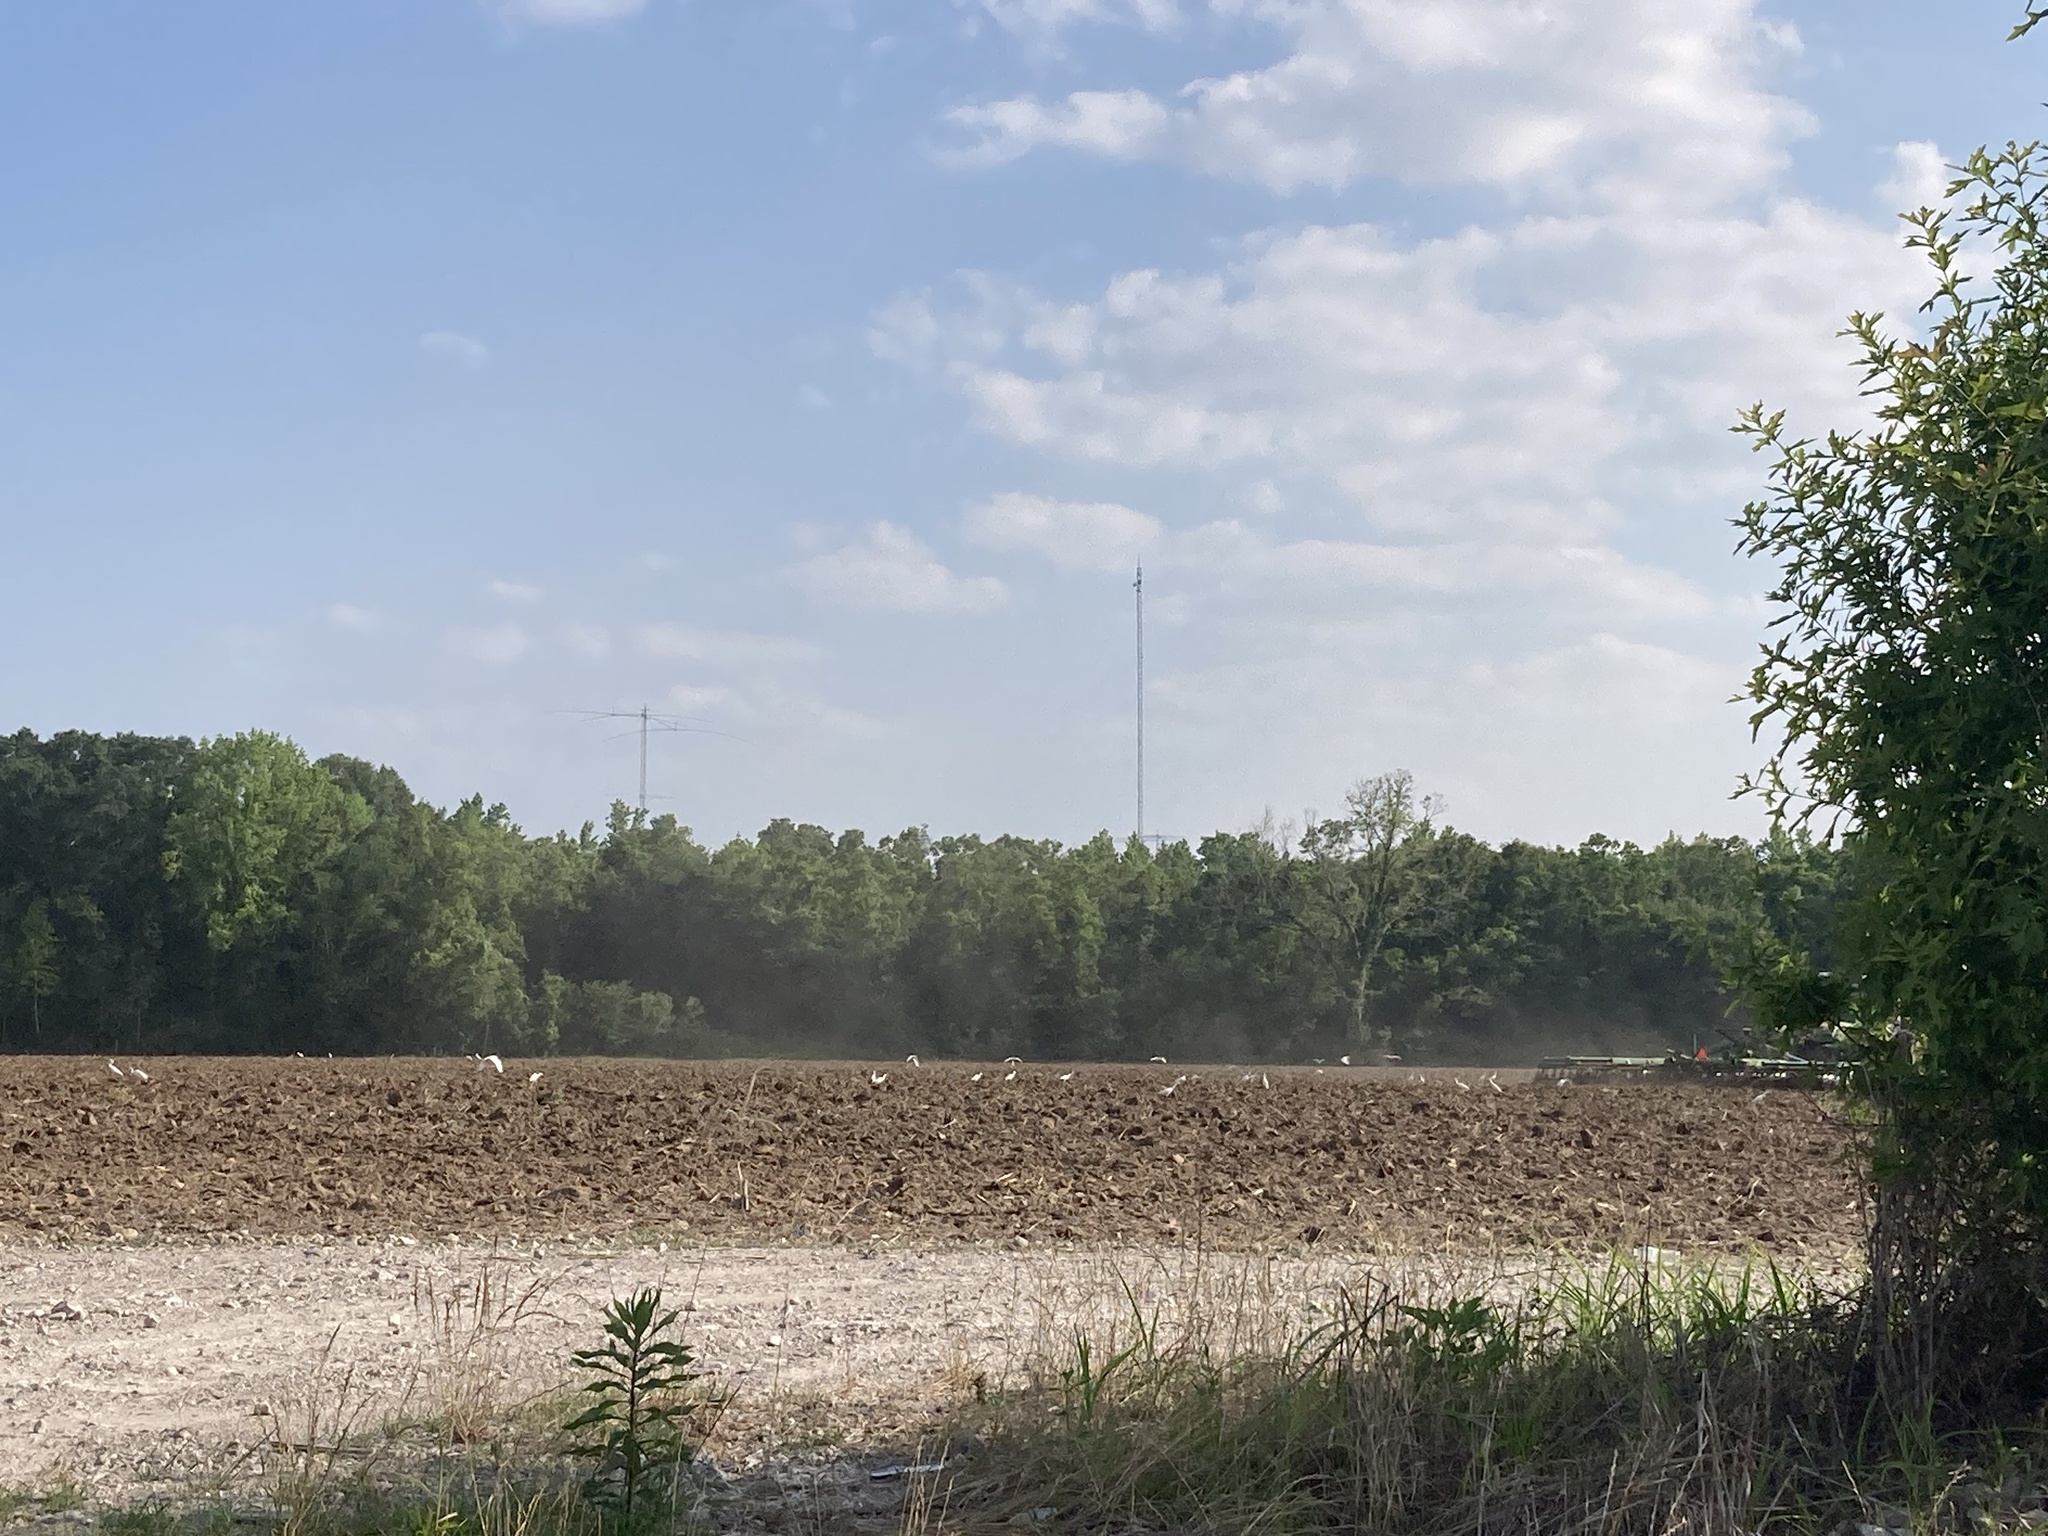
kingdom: Animalia
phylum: Chordata
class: Aves
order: Pelecaniformes
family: Ardeidae
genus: Bubulcus
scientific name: Bubulcus ibis
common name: Cattle egret
